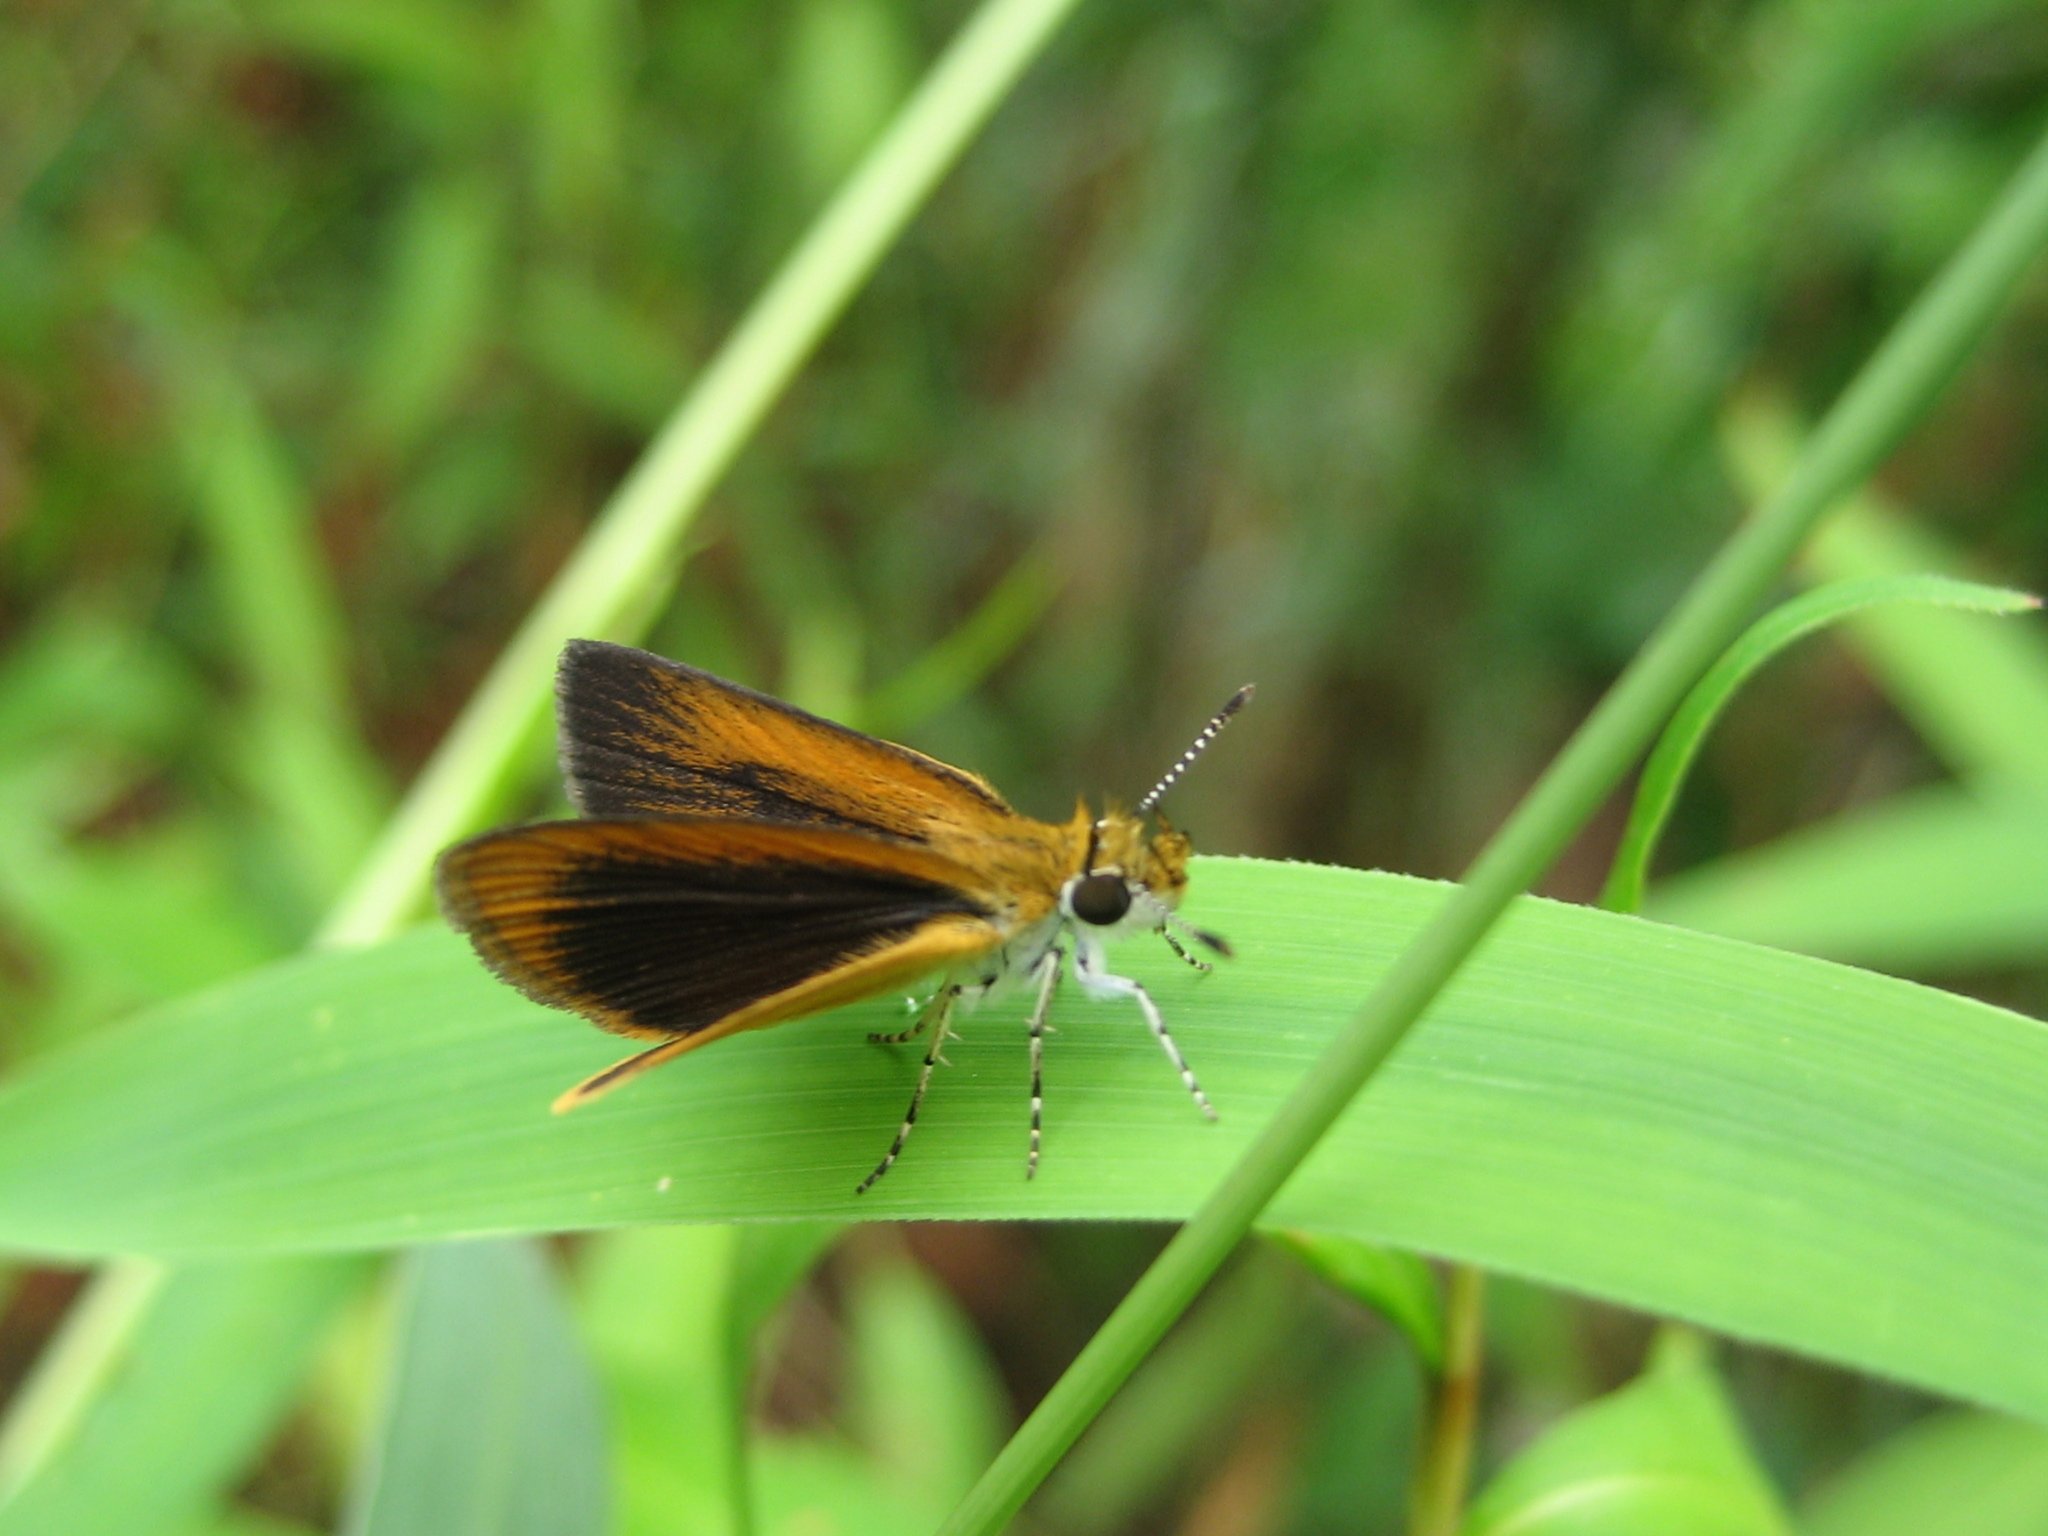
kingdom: Animalia
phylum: Arthropoda
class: Insecta
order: Lepidoptera
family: Hesperiidae
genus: Ancyloxypha
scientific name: Ancyloxypha numitor
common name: Least skipper
